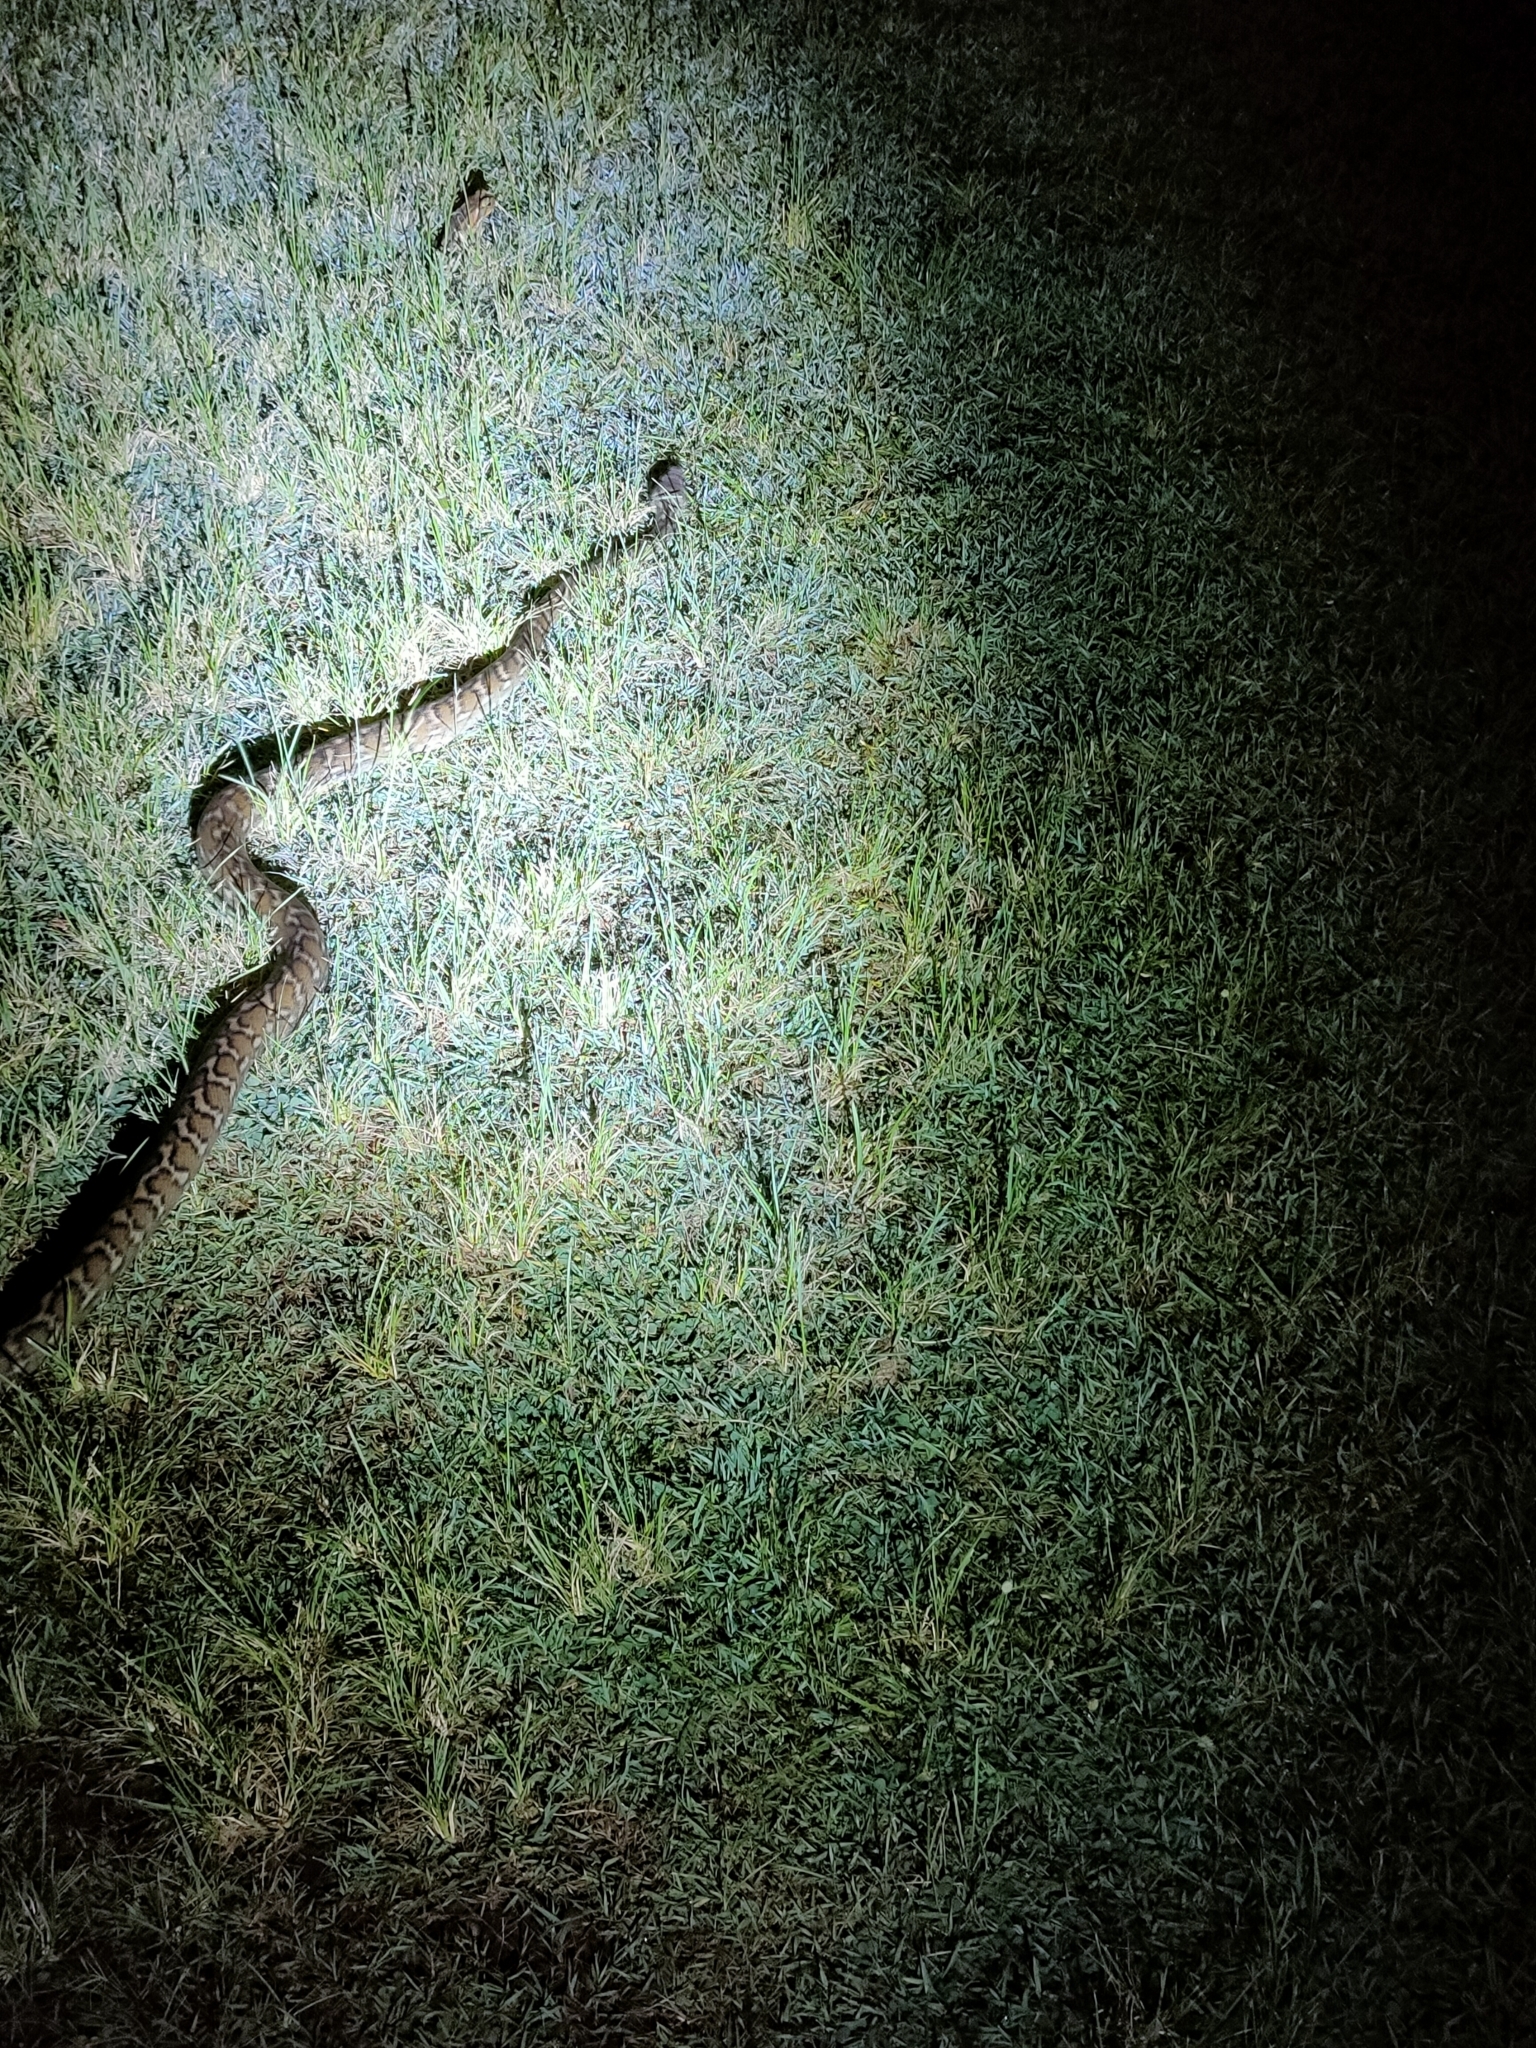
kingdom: Animalia
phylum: Chordata
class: Squamata
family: Pythonidae
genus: Morelia
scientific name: Morelia spilota
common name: Carpet python
